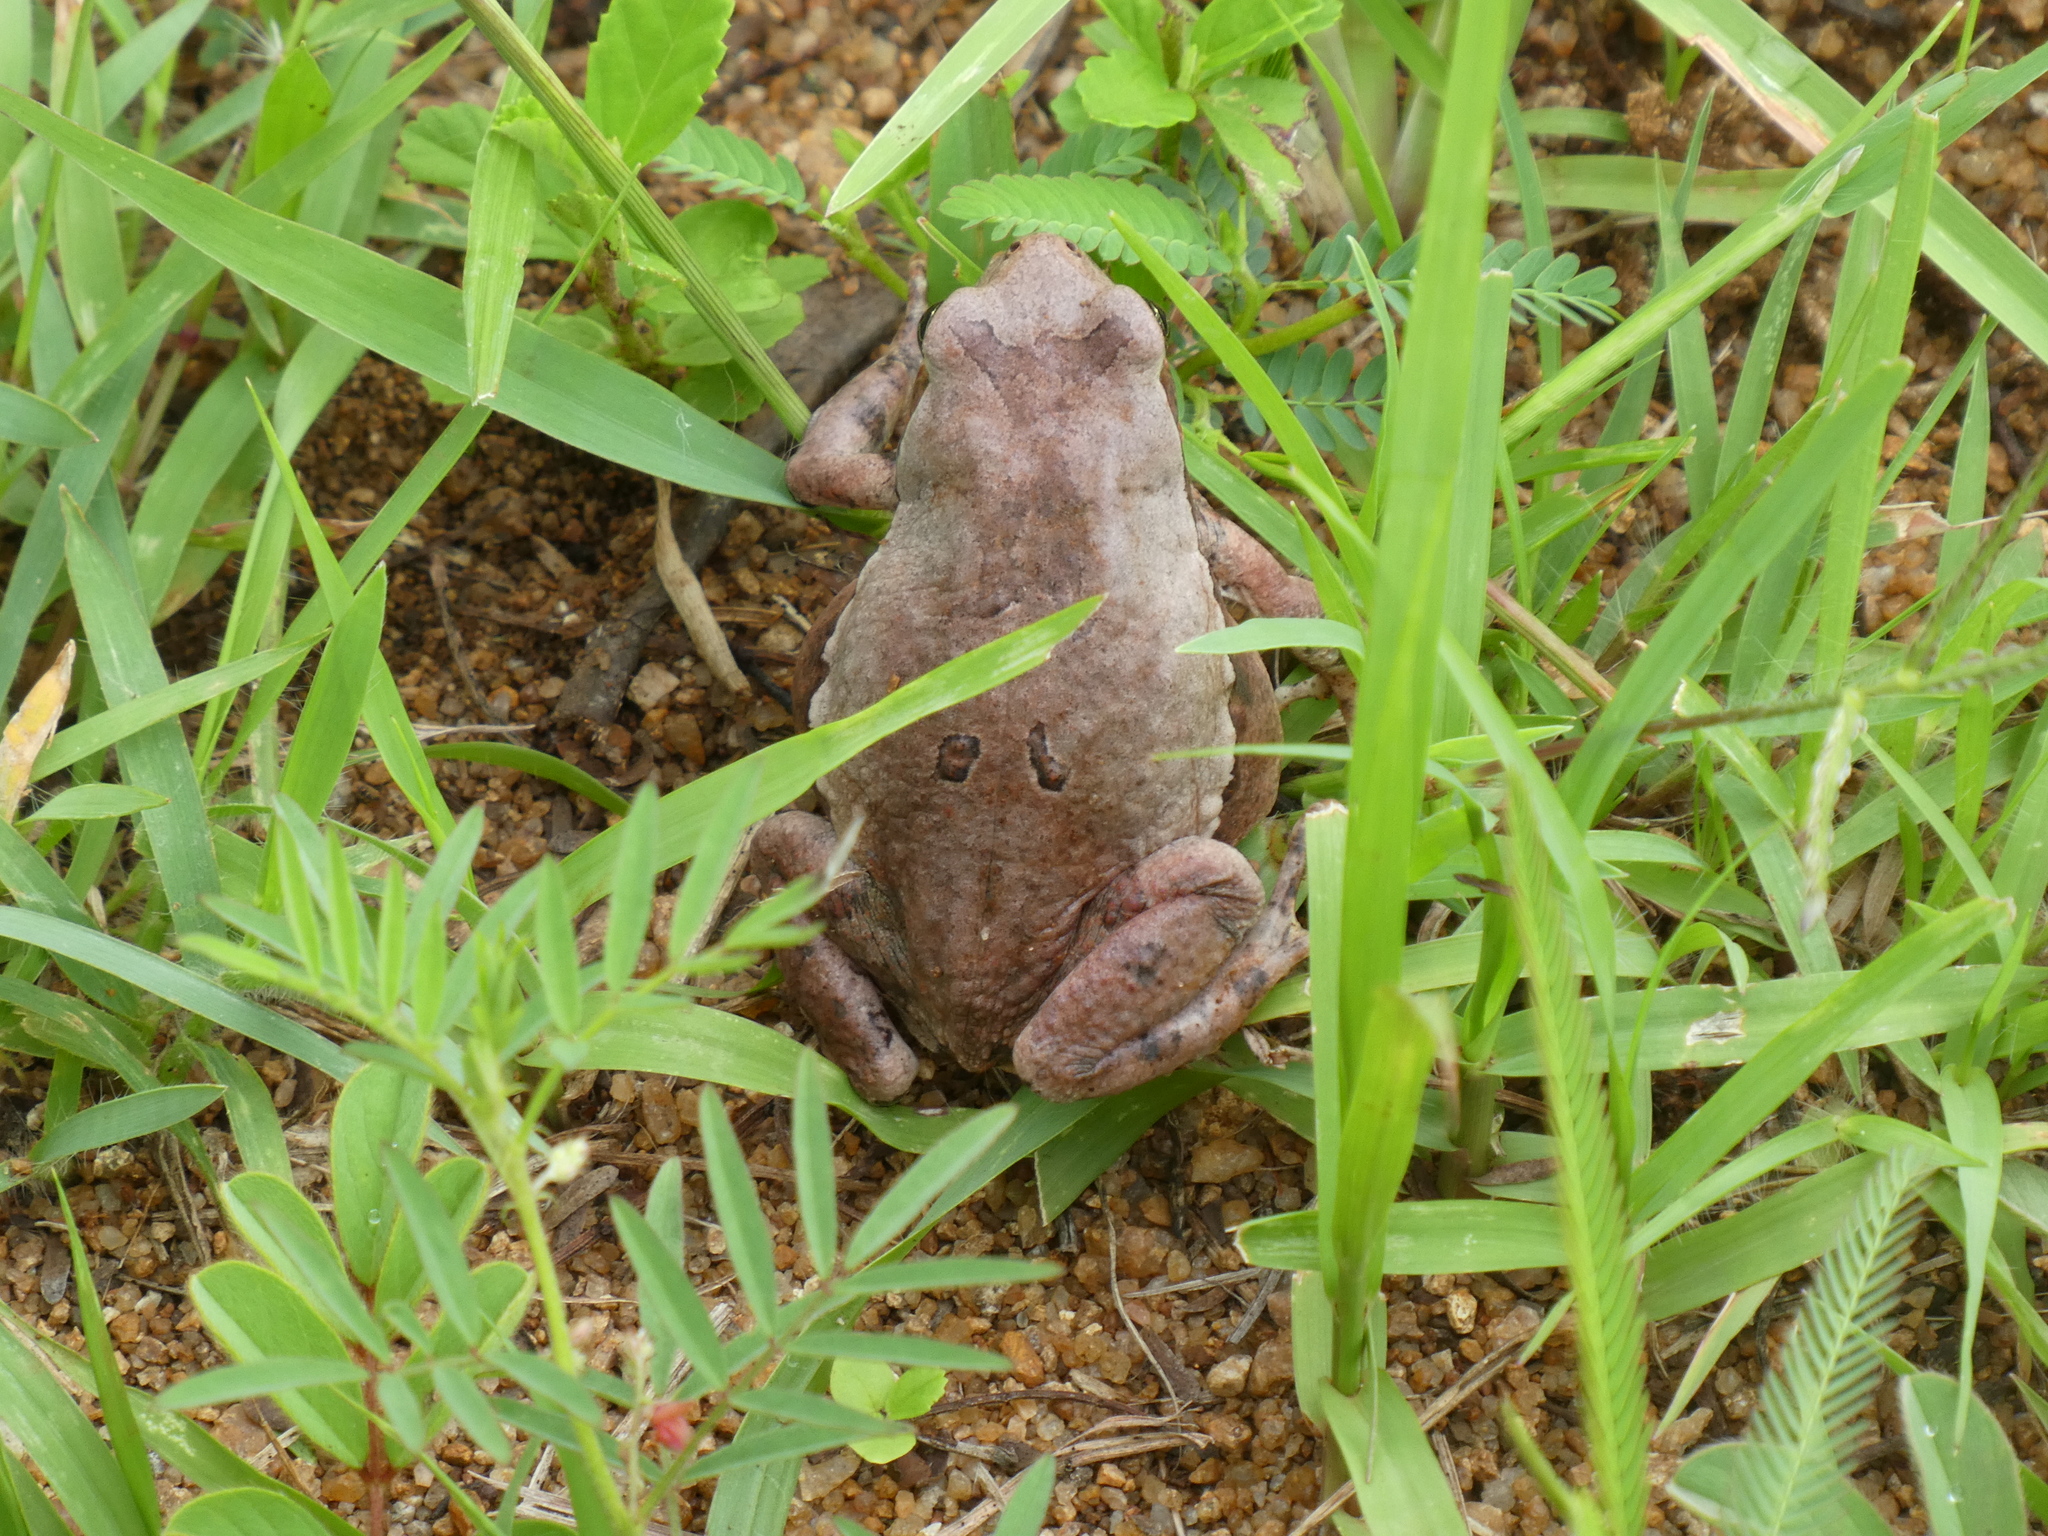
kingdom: Animalia
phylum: Chordata
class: Amphibia
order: Anura
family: Bufonidae
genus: Schismaderma
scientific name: Schismaderma carens
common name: African split-skin toad
